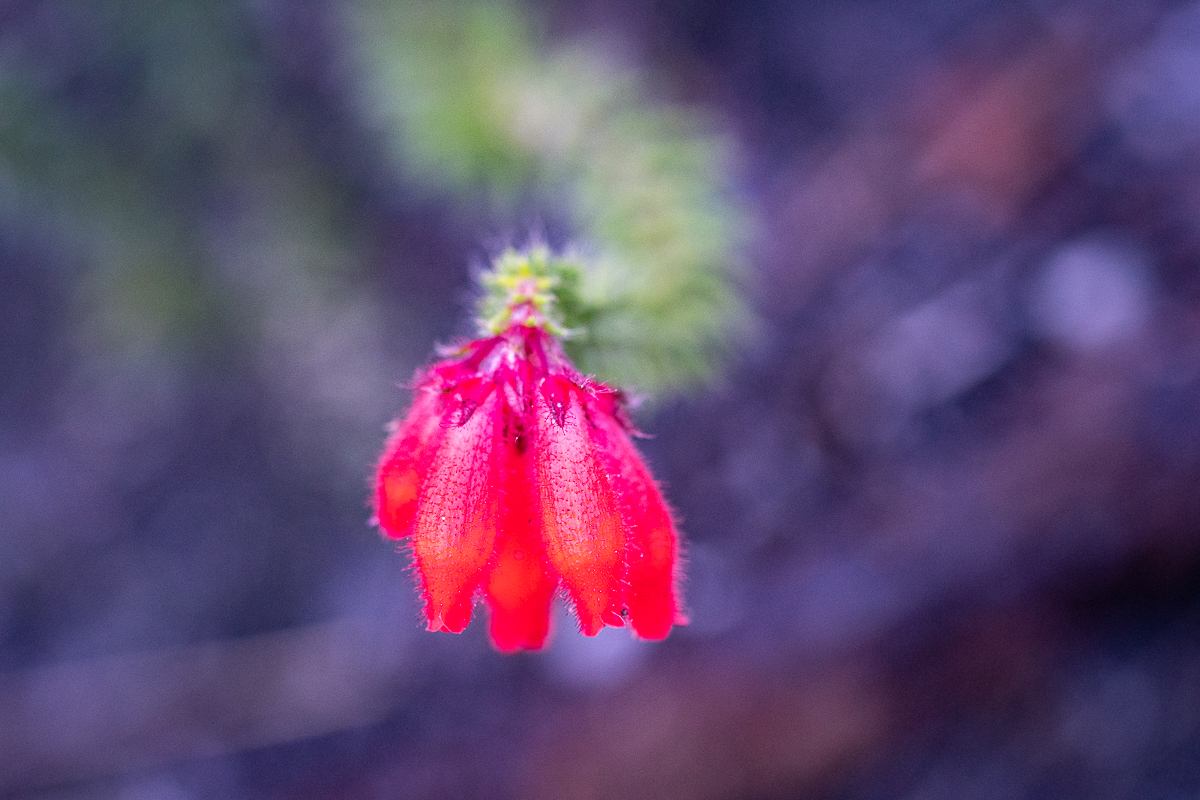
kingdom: Plantae
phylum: Tracheophyta
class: Magnoliopsida
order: Ericales
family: Ericaceae
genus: Erica
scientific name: Erica cerinthoides
